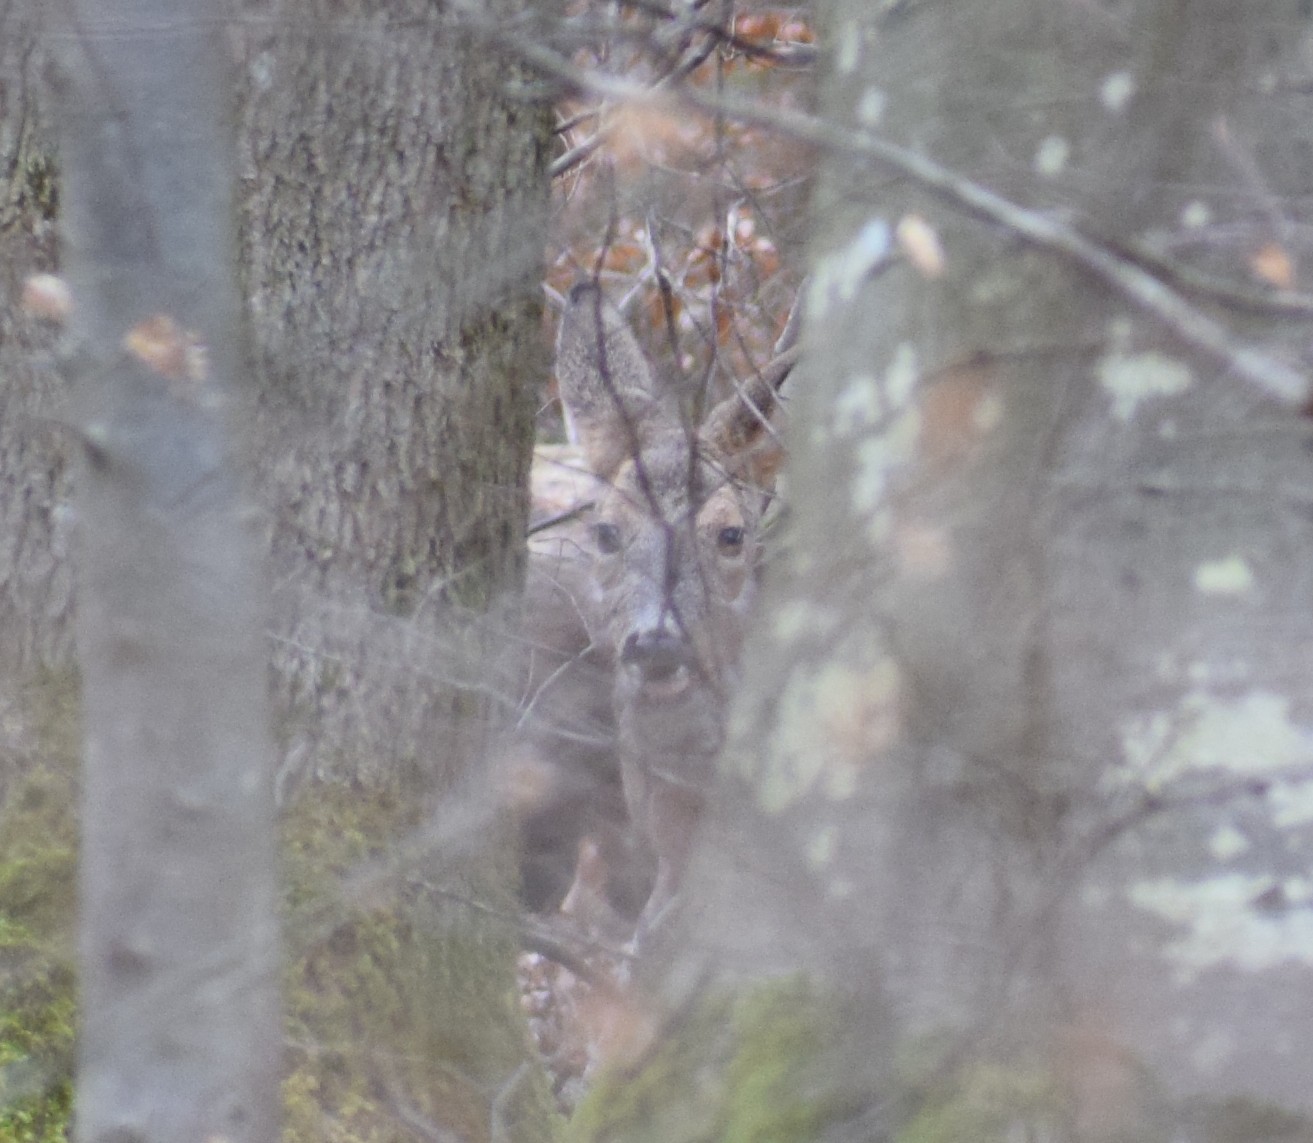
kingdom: Animalia
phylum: Chordata
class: Mammalia
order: Artiodactyla
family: Cervidae
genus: Capreolus
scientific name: Capreolus capreolus
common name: Western roe deer
